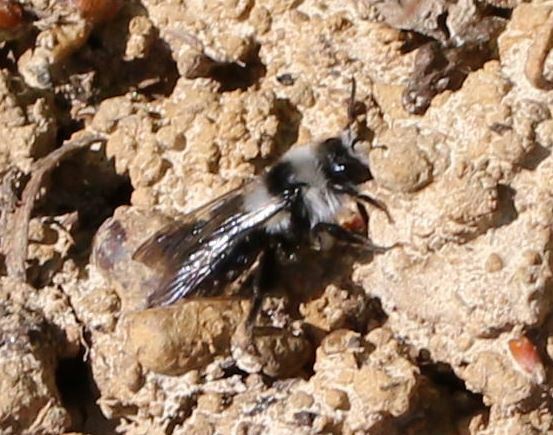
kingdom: Animalia
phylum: Arthropoda
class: Insecta
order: Hymenoptera
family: Andrenidae
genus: Andrena
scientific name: Andrena cineraria
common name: Ashy mining bee
